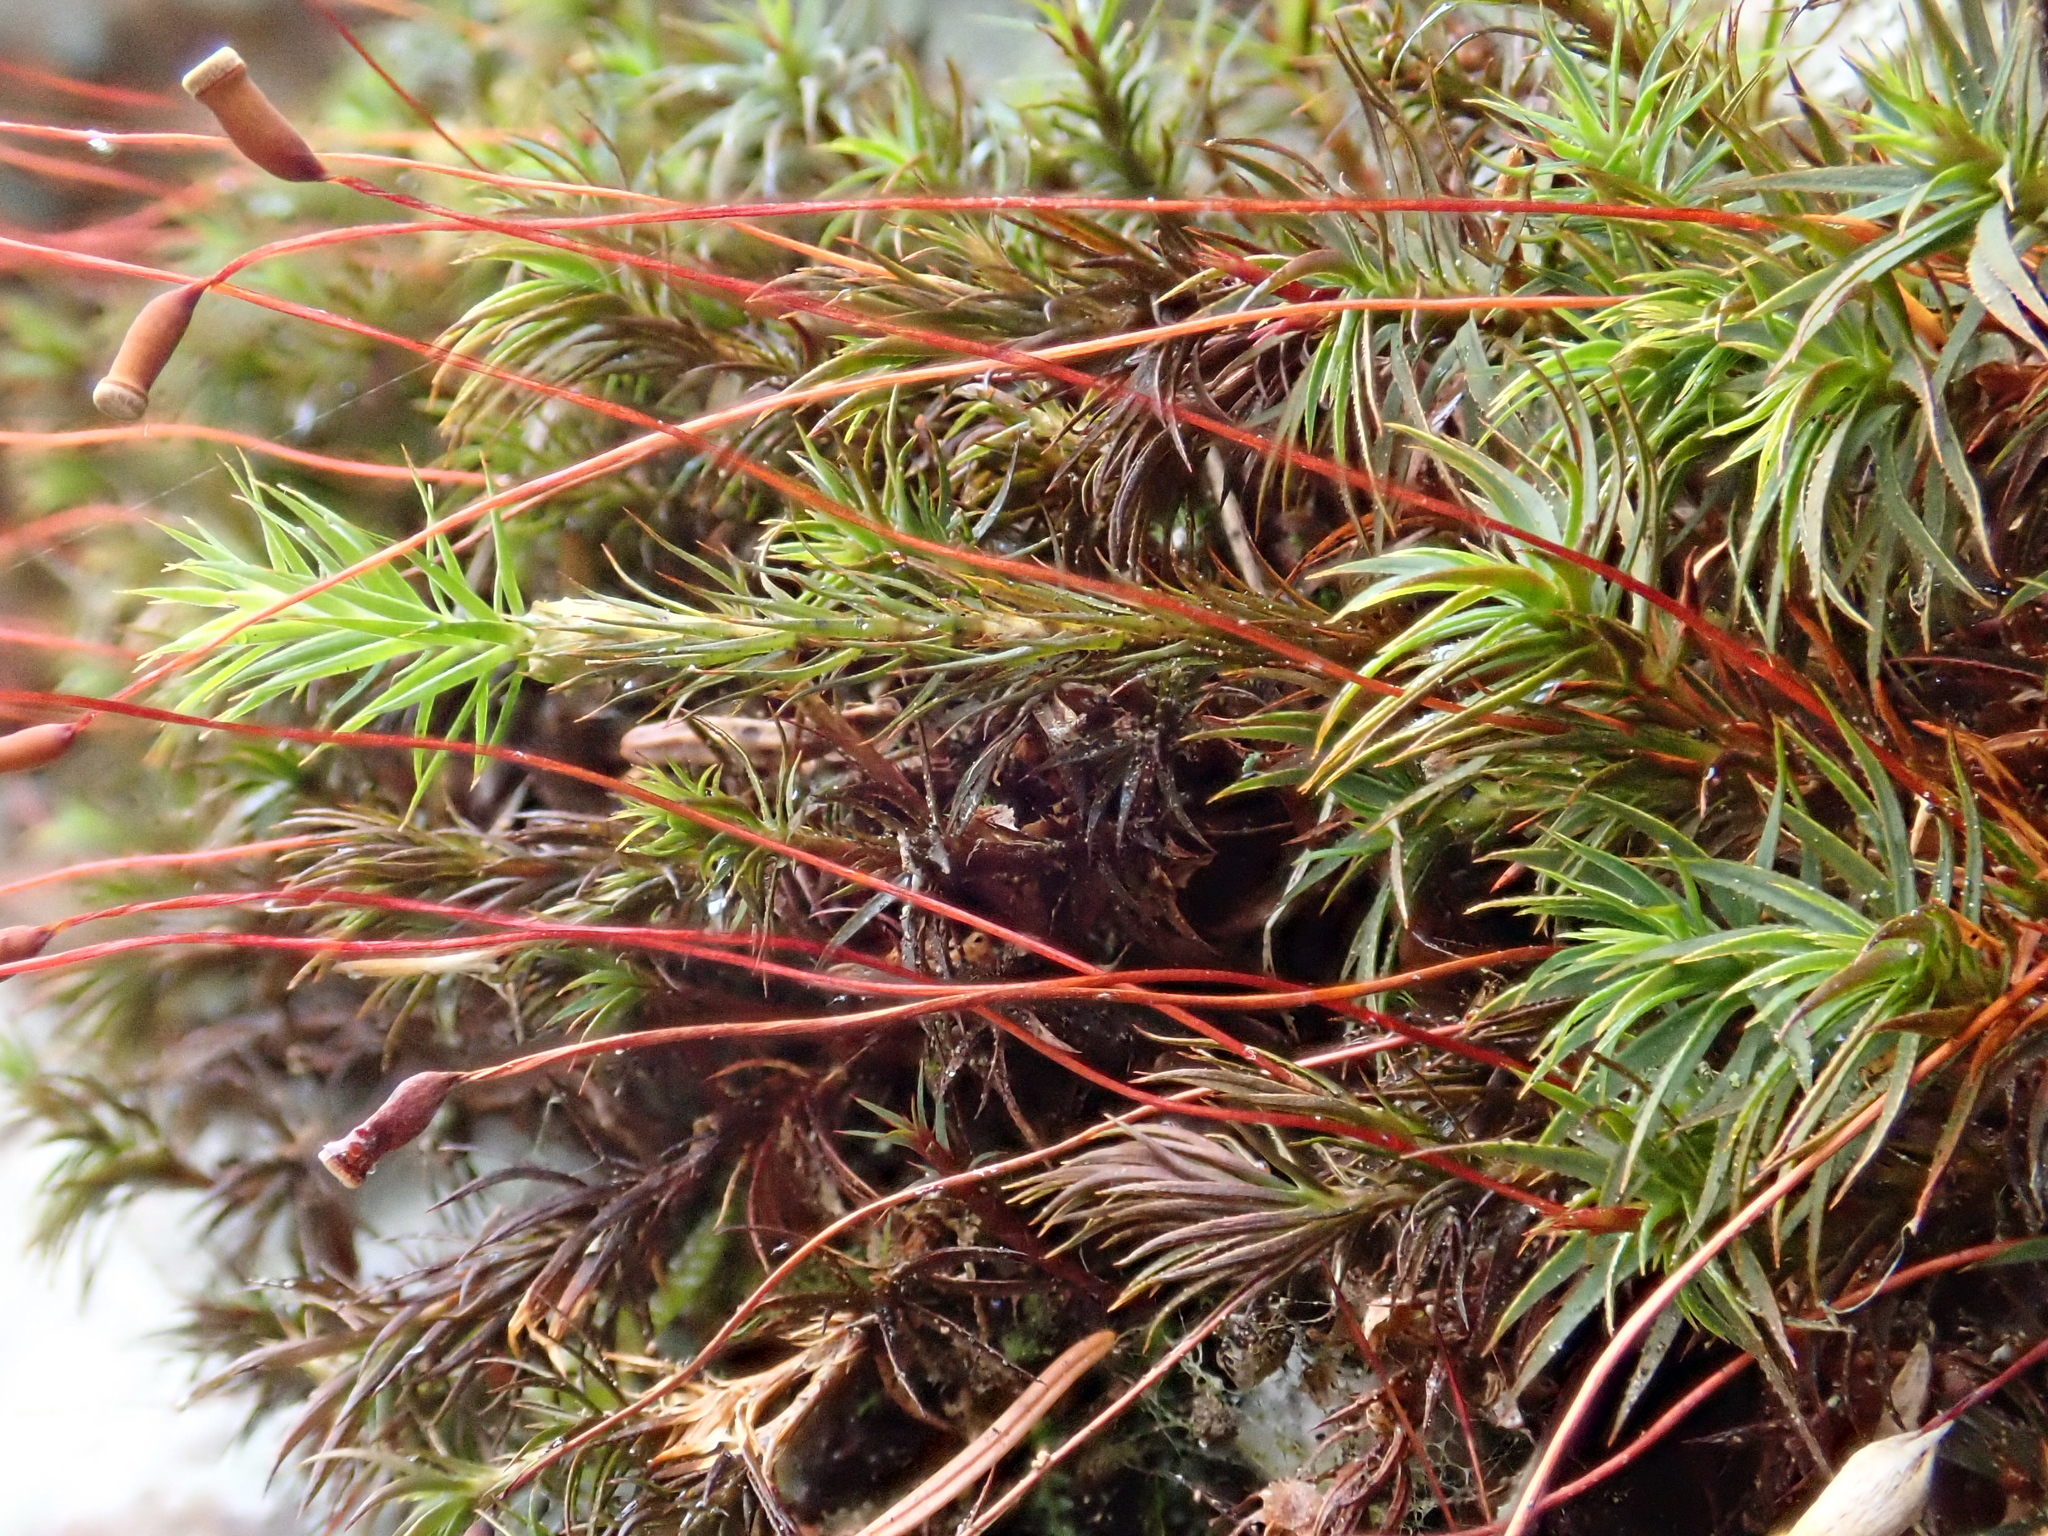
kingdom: Plantae
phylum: Bryophyta
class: Polytrichopsida
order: Polytrichales
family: Polytrichaceae
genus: Pogonatum
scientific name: Pogonatum urnigerum
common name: Urn hair moss
